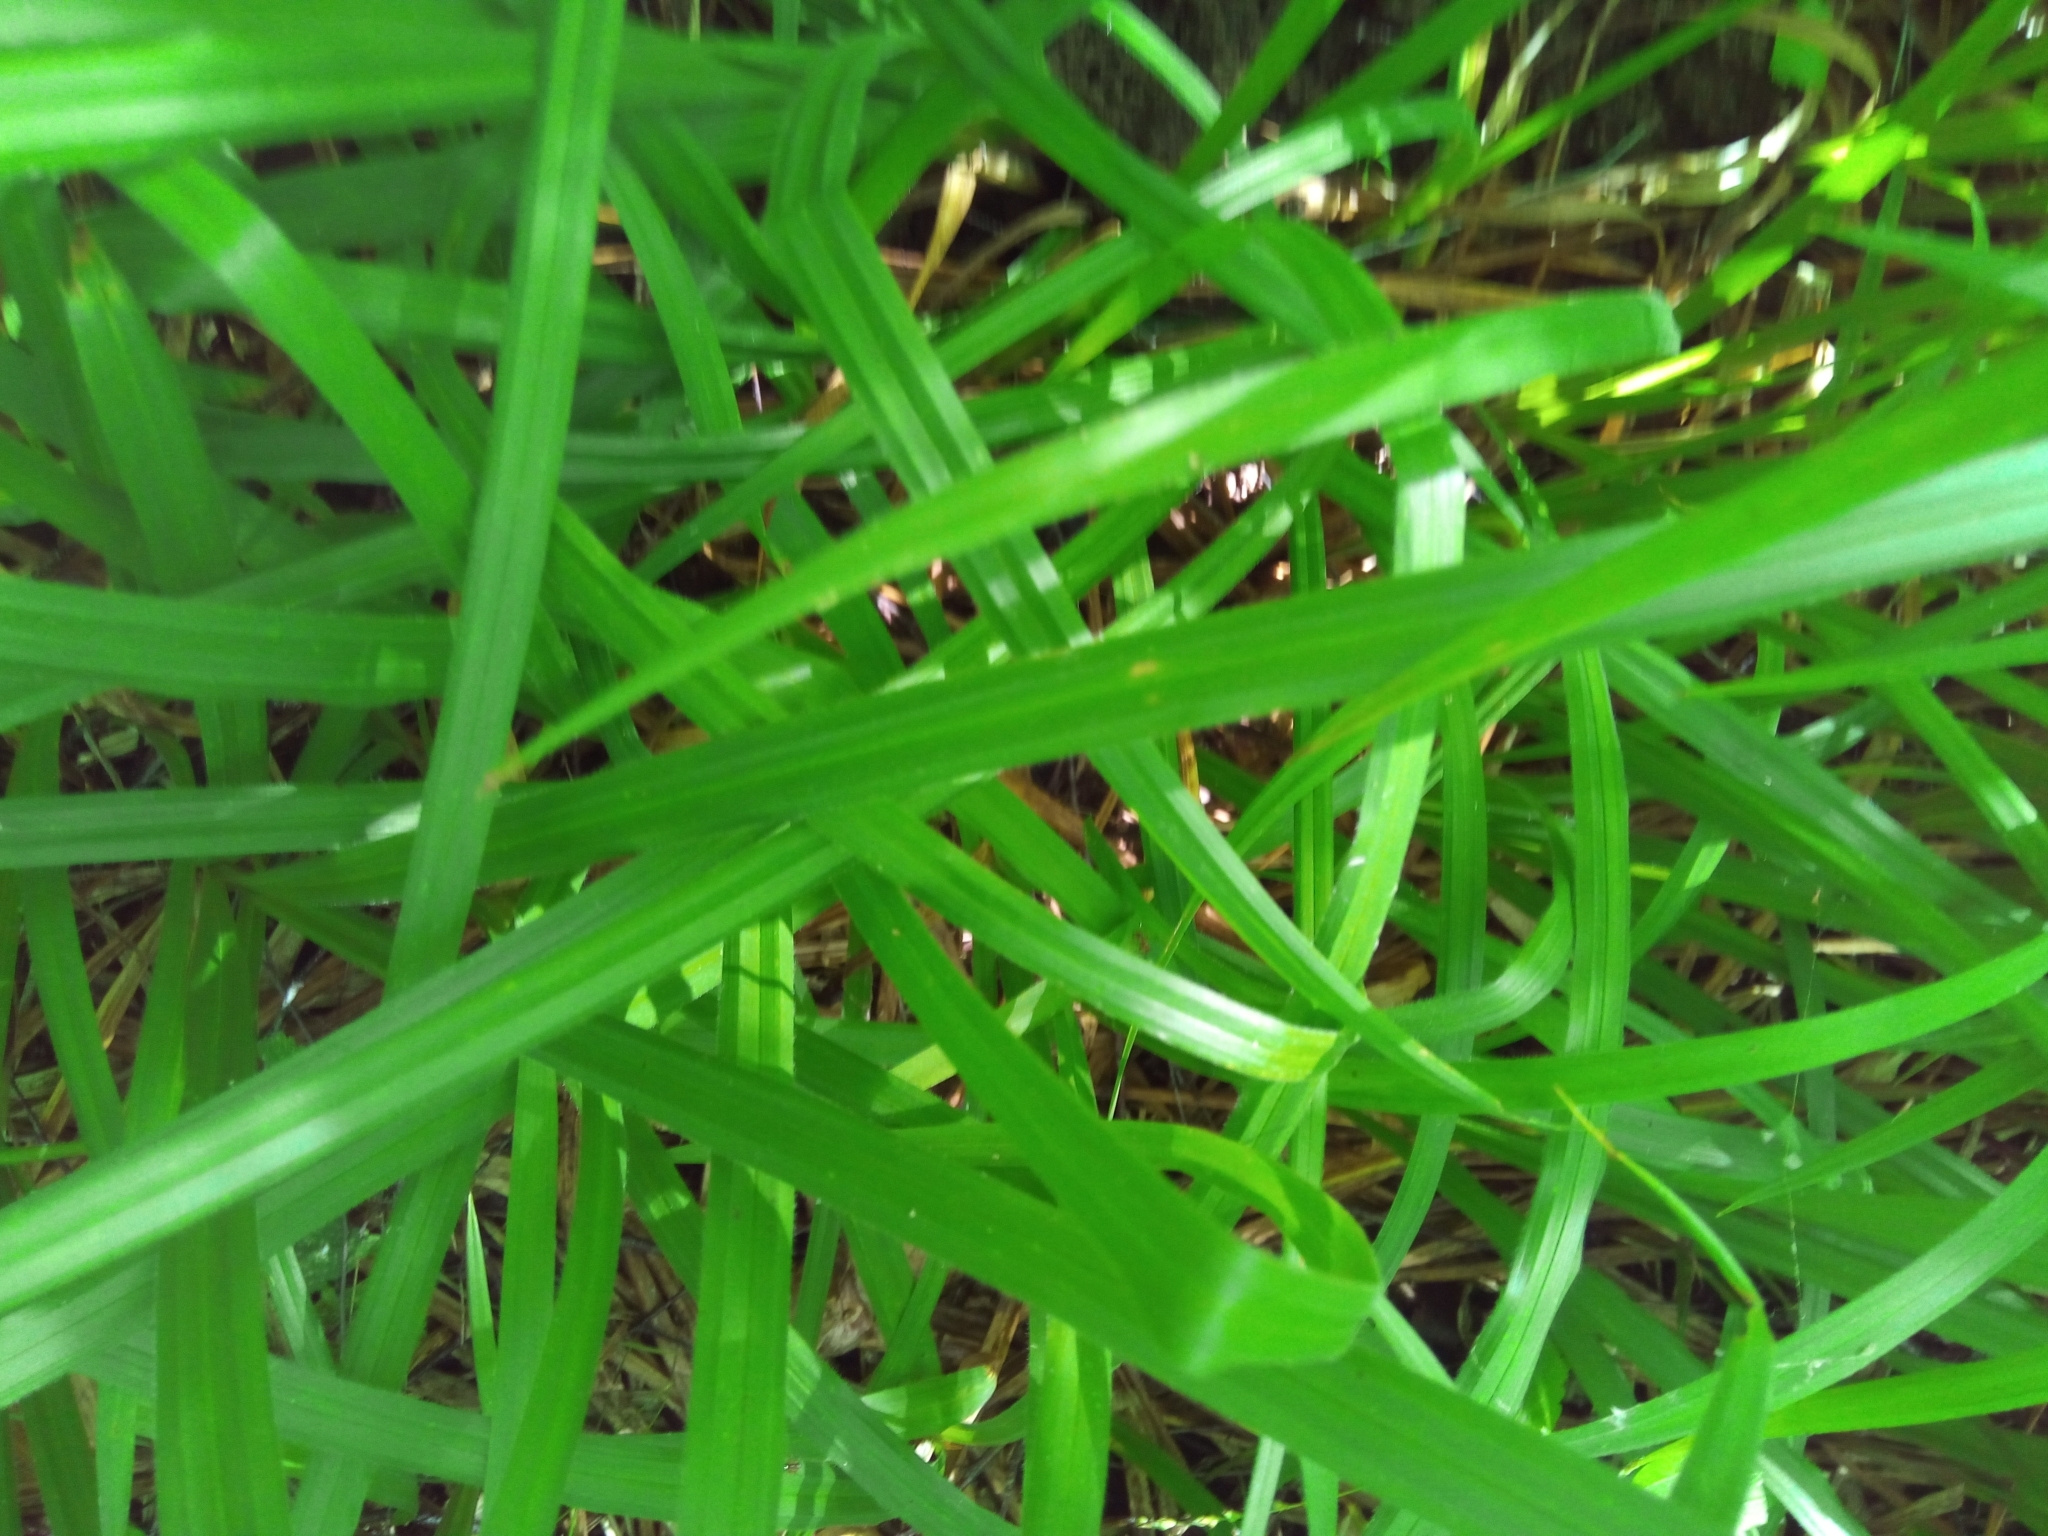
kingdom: Plantae
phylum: Tracheophyta
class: Liliopsida
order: Poales
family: Cyperaceae
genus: Carex
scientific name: Carex pilosa
